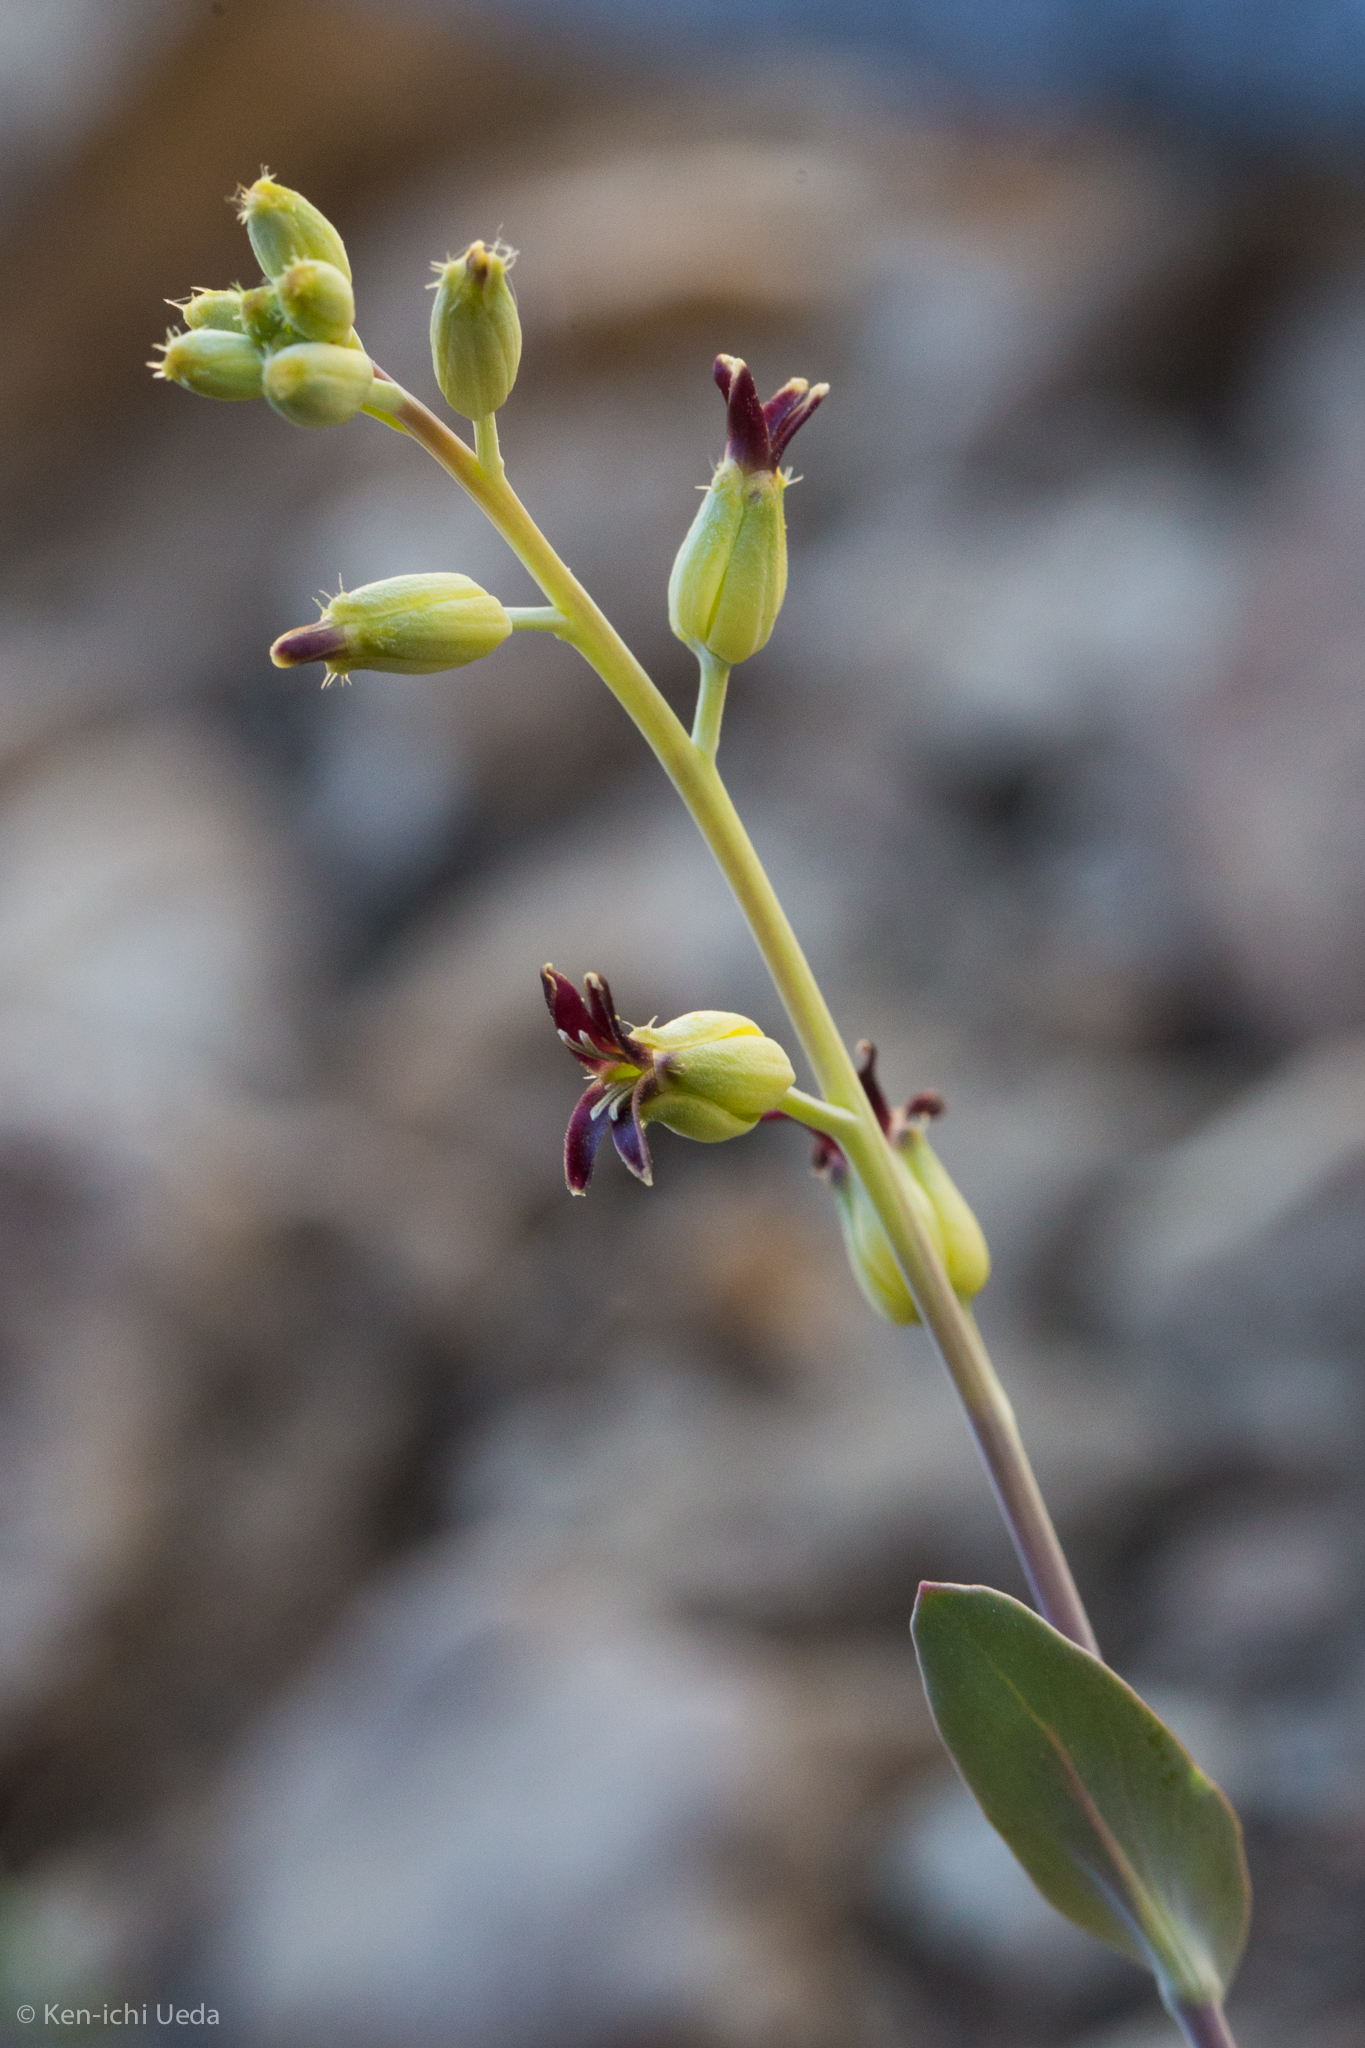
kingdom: Plantae
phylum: Tracheophyta
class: Magnoliopsida
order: Brassicales
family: Brassicaceae
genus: Streptanthus
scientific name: Streptanthus cordatus
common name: Heart-leaf jewel-flower
